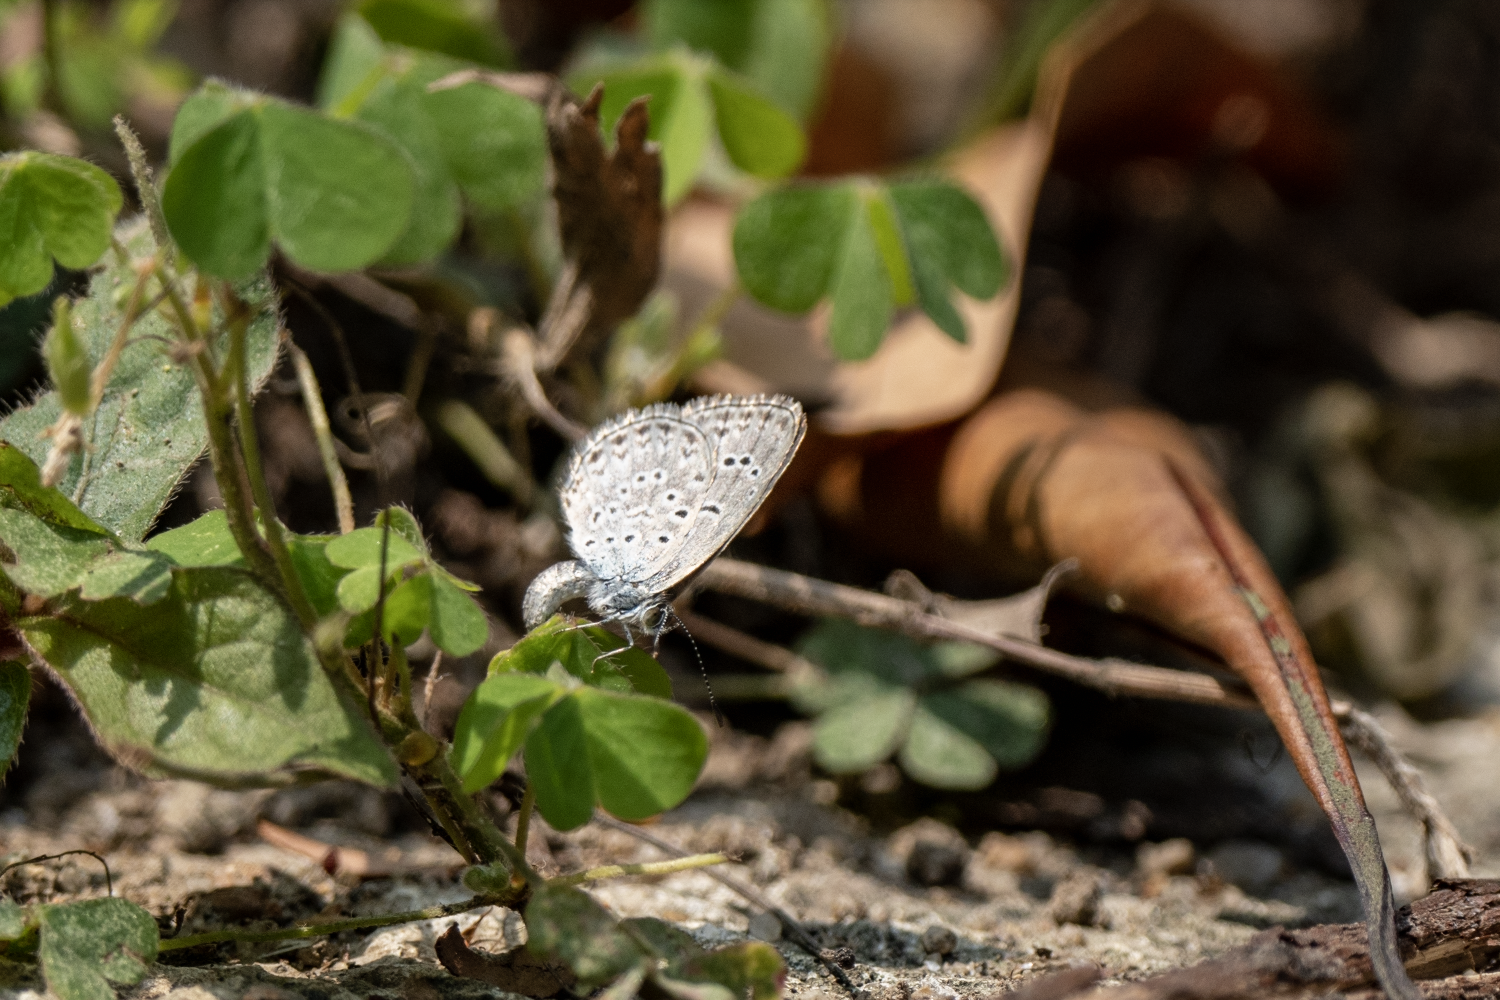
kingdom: Animalia
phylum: Arthropoda
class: Insecta
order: Lepidoptera
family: Lycaenidae
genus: Pseudozizeeria
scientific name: Pseudozizeeria maha
